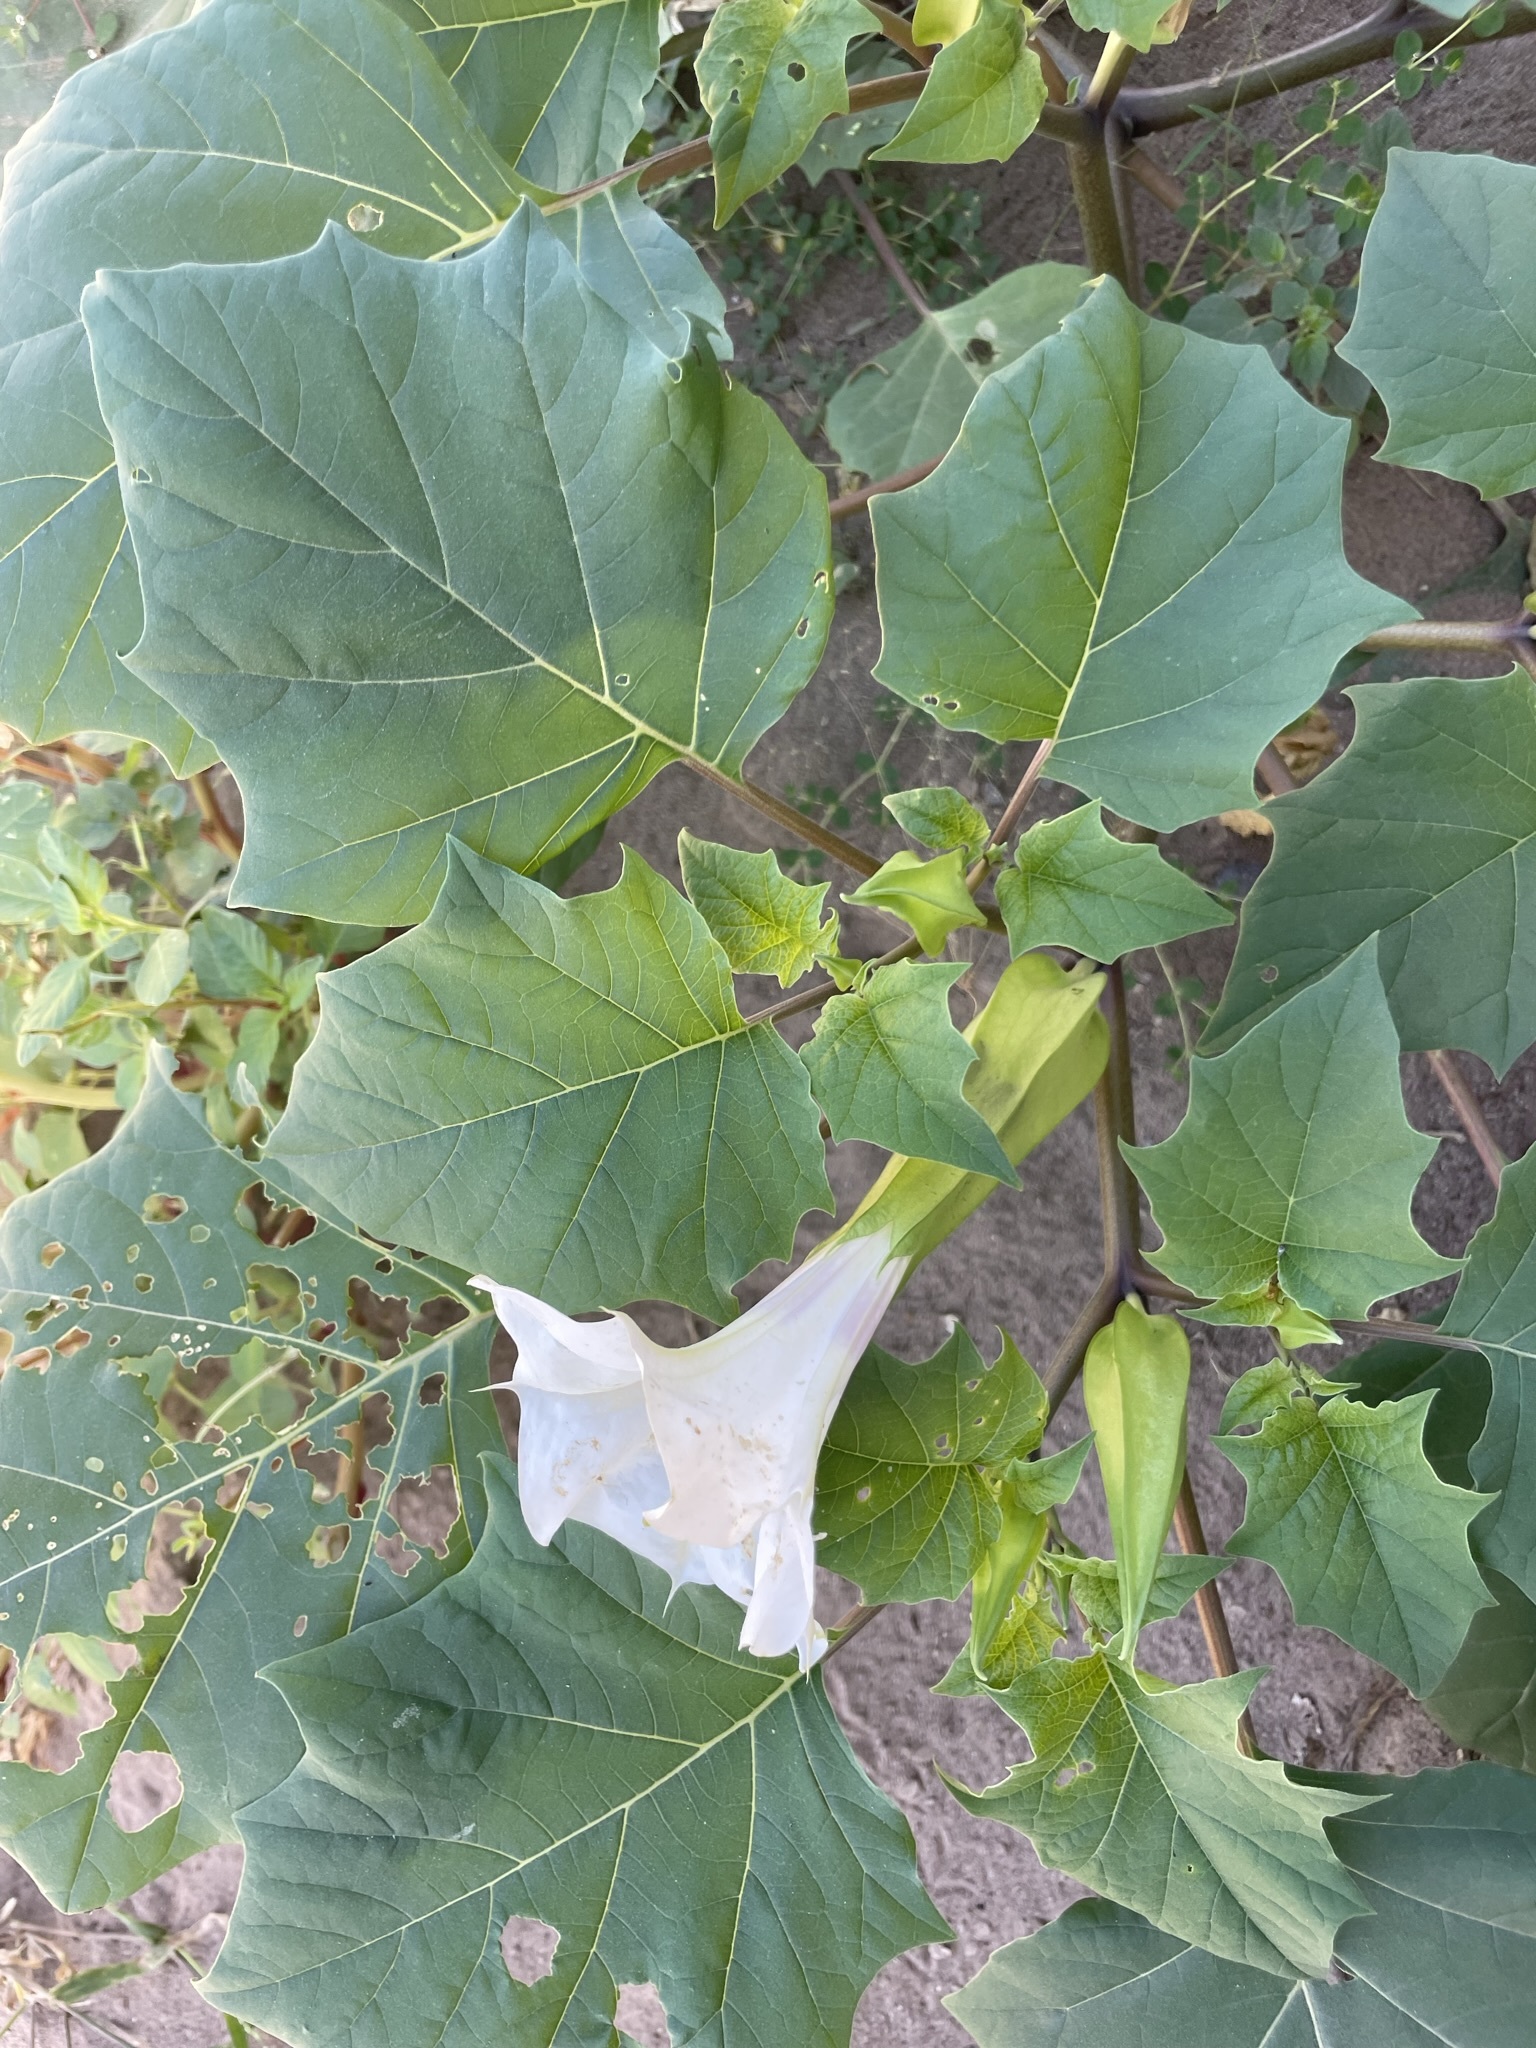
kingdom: Plantae
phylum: Tracheophyta
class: Magnoliopsida
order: Solanales
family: Solanaceae
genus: Datura
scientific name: Datura discolor
